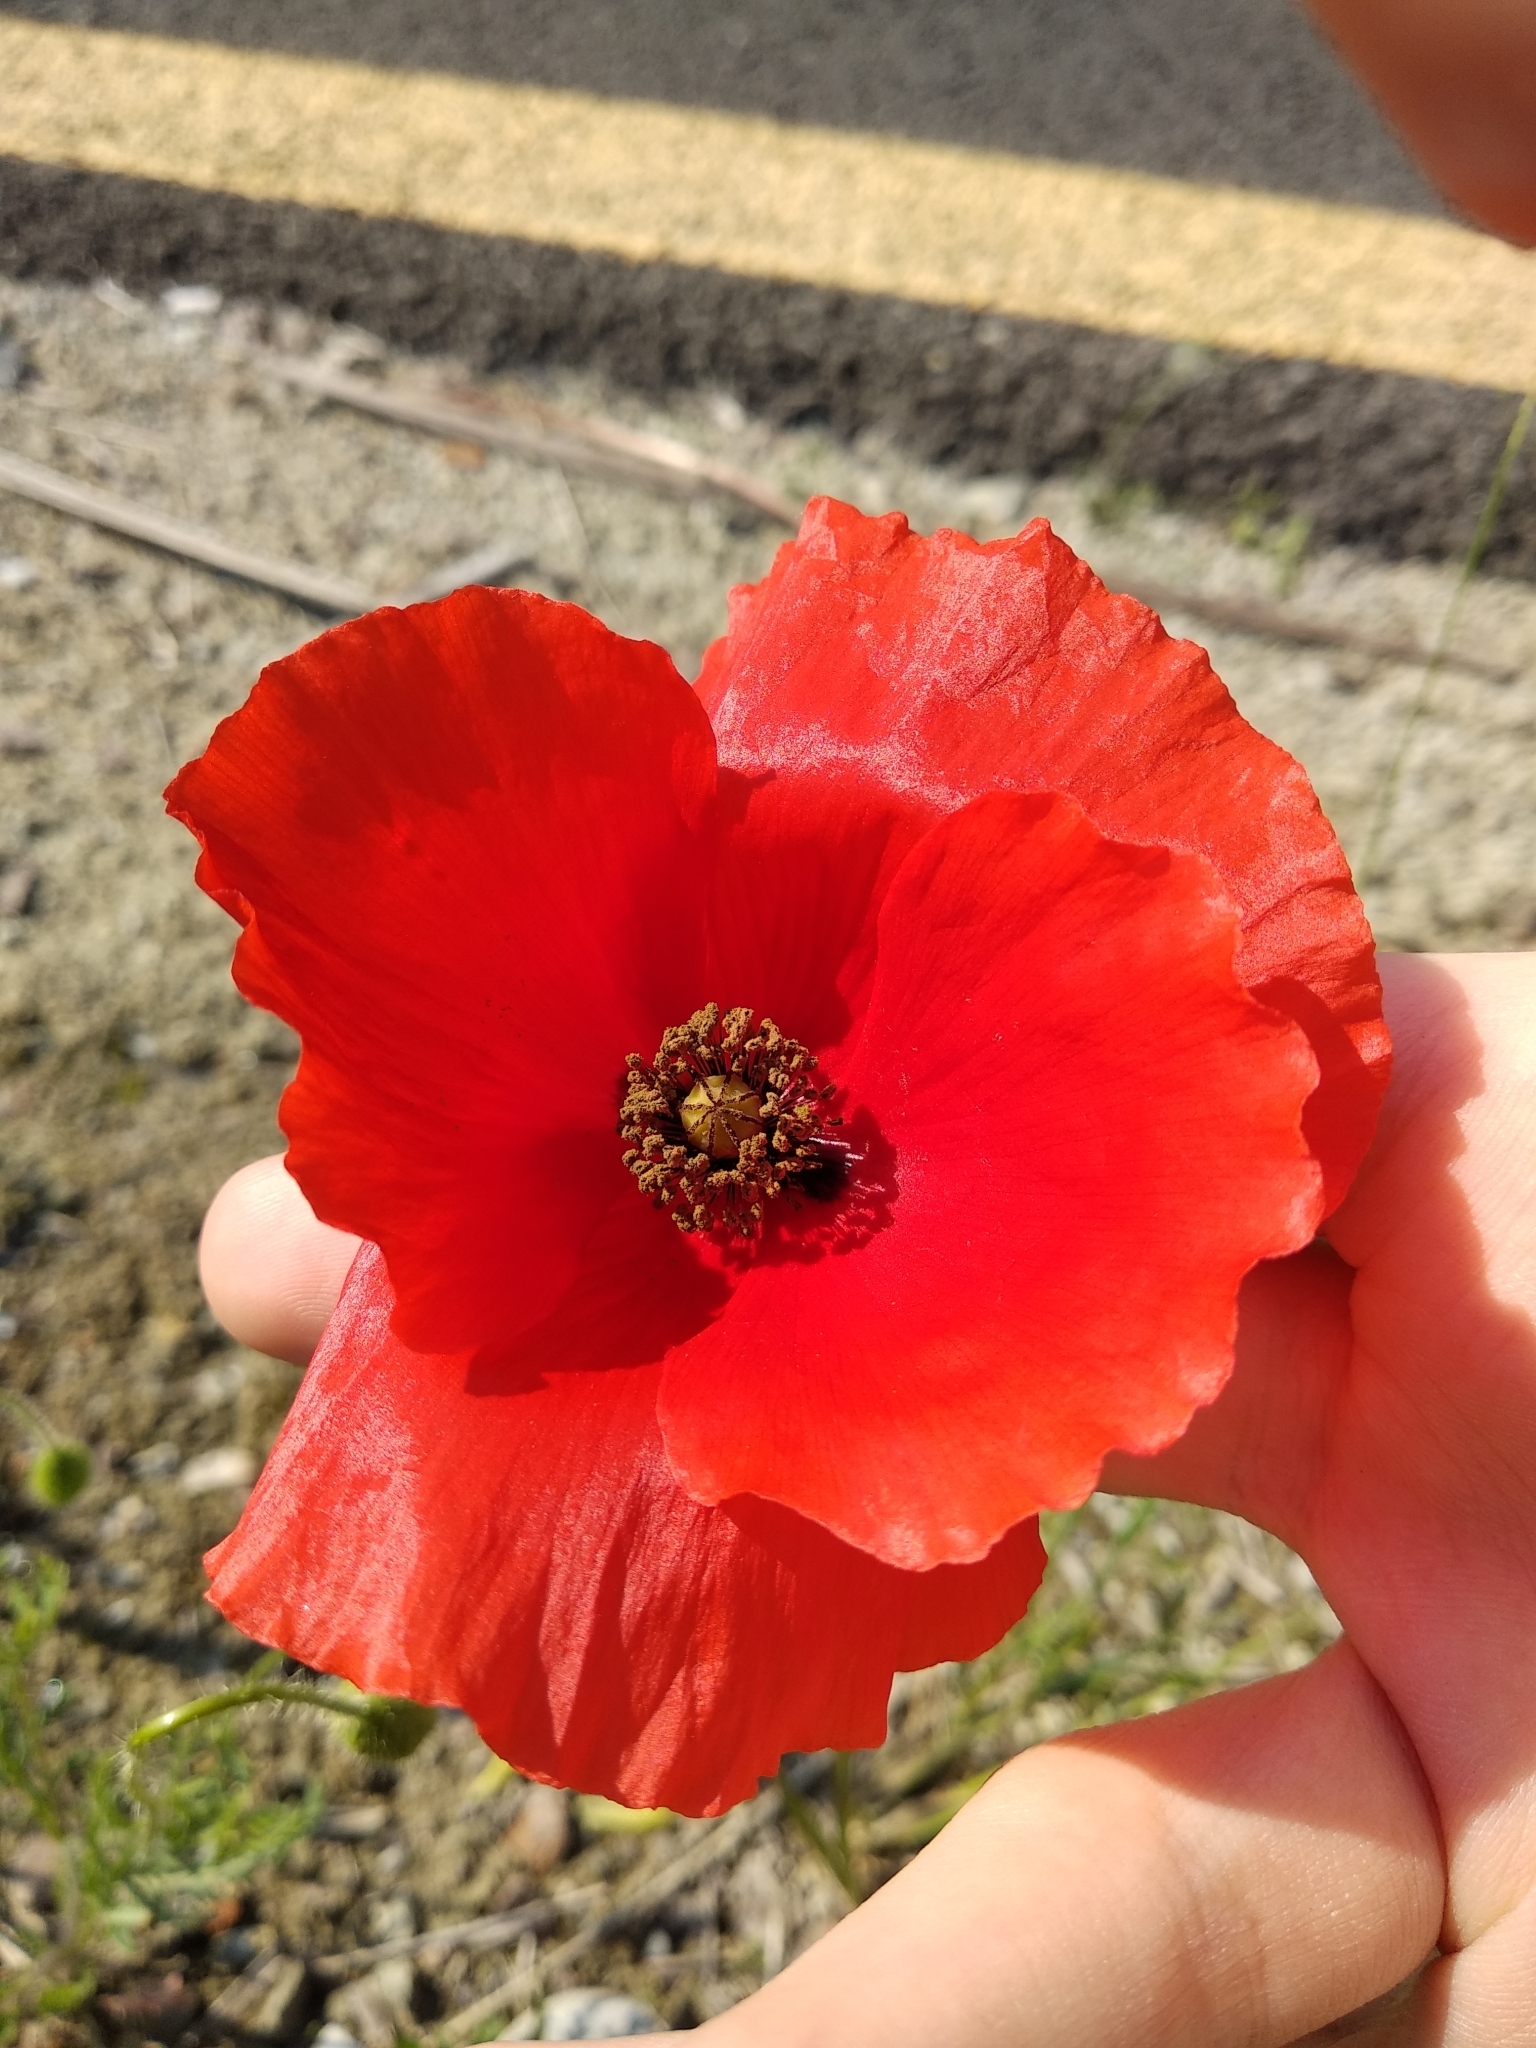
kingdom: Plantae
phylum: Tracheophyta
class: Magnoliopsida
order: Ranunculales
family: Papaveraceae
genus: Papaver
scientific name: Papaver rhoeas
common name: Corn poppy
